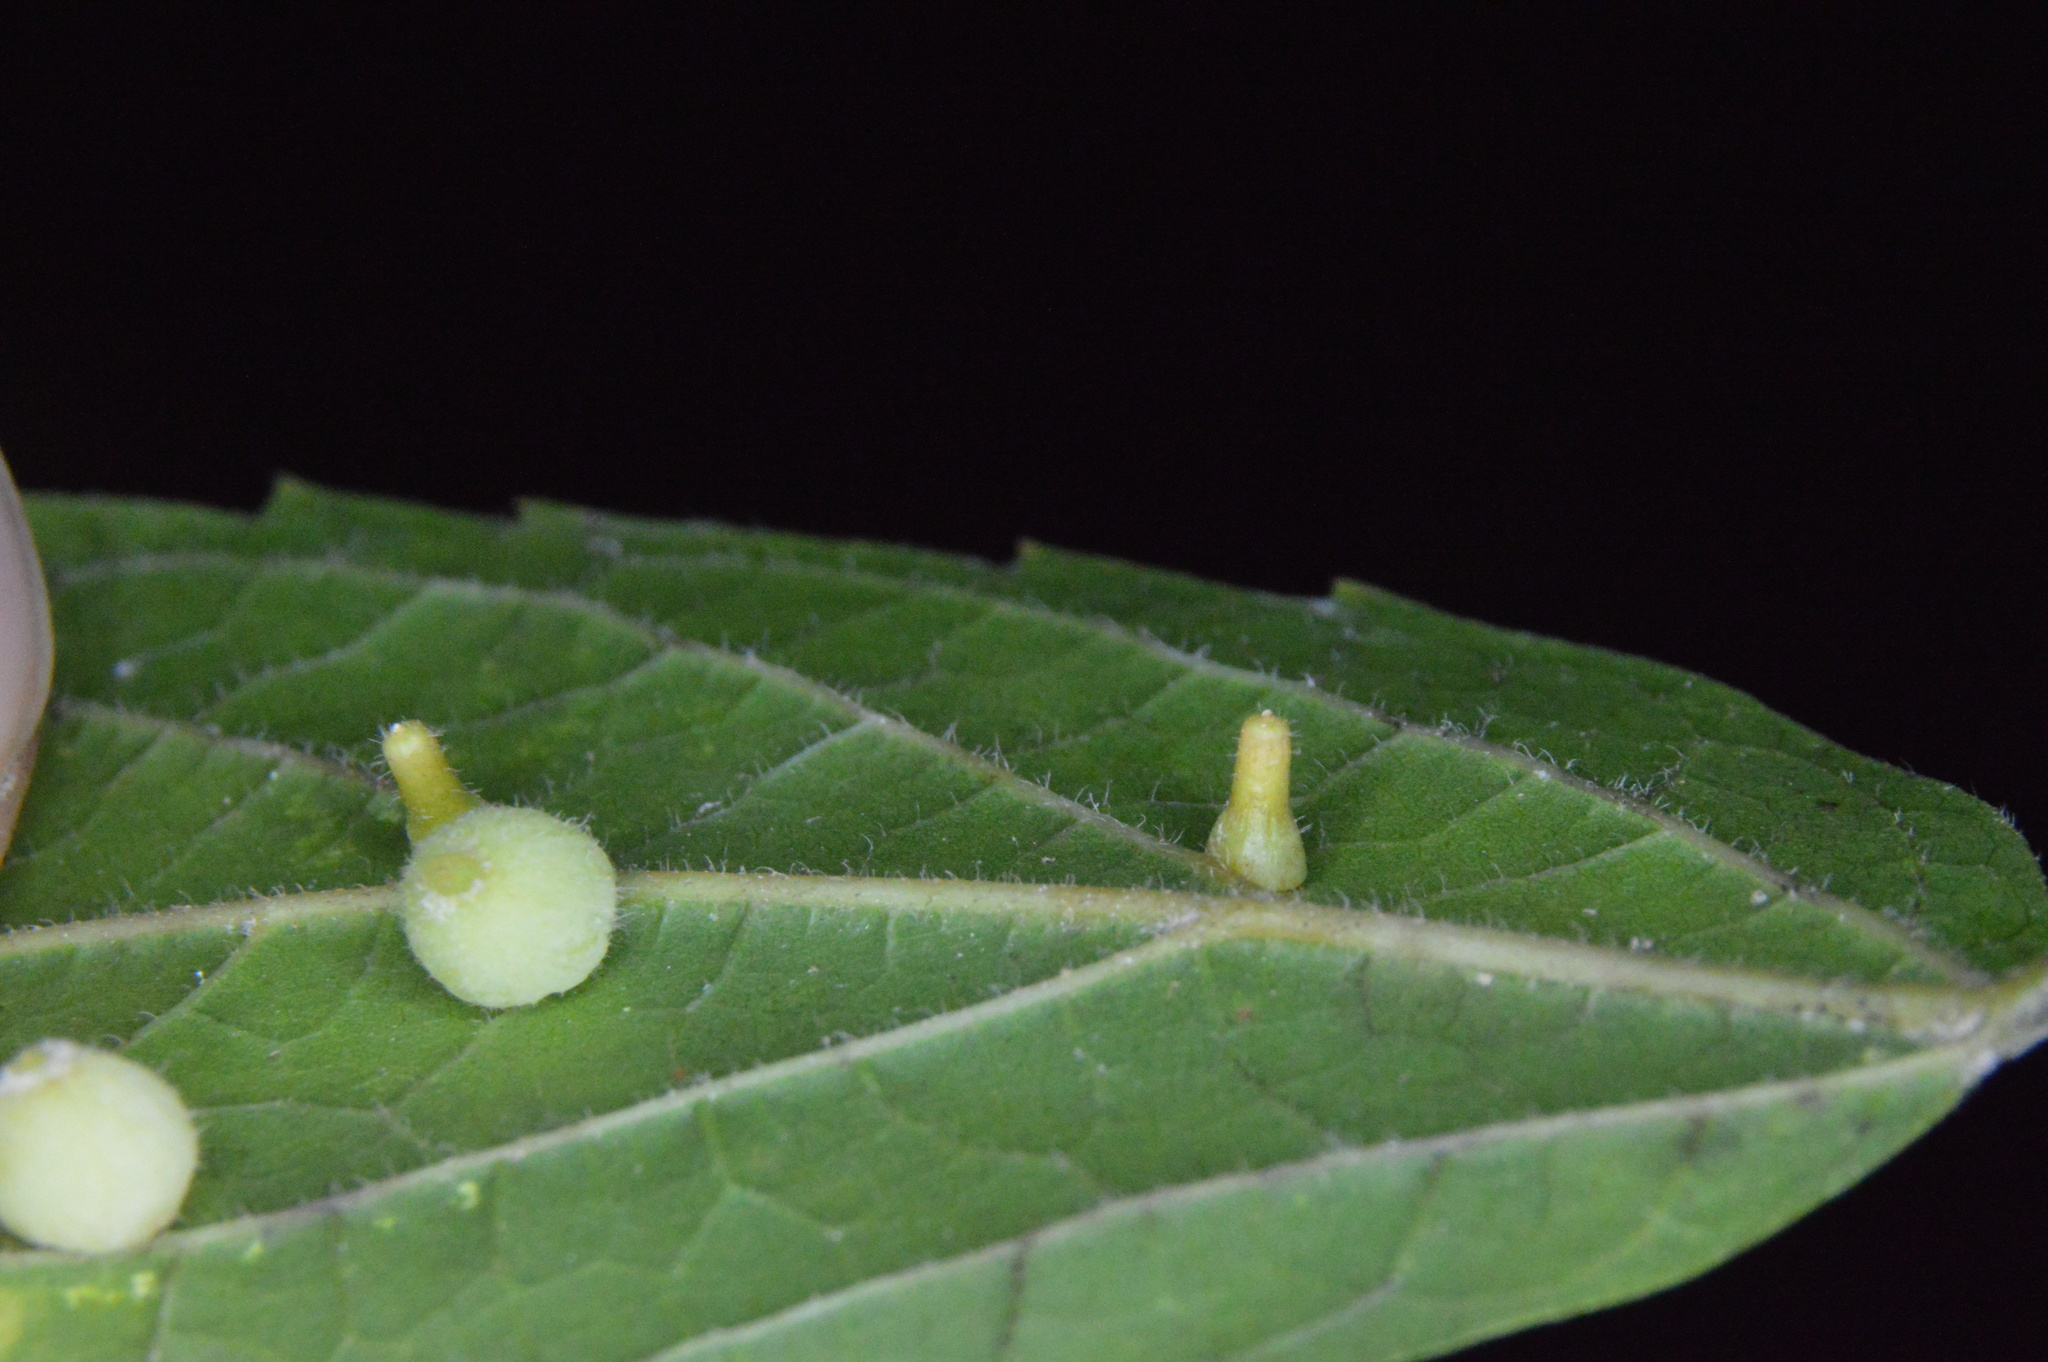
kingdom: Animalia
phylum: Arthropoda
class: Insecta
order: Diptera
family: Cecidomyiidae
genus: Celticecis
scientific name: Celticecis aciculata
